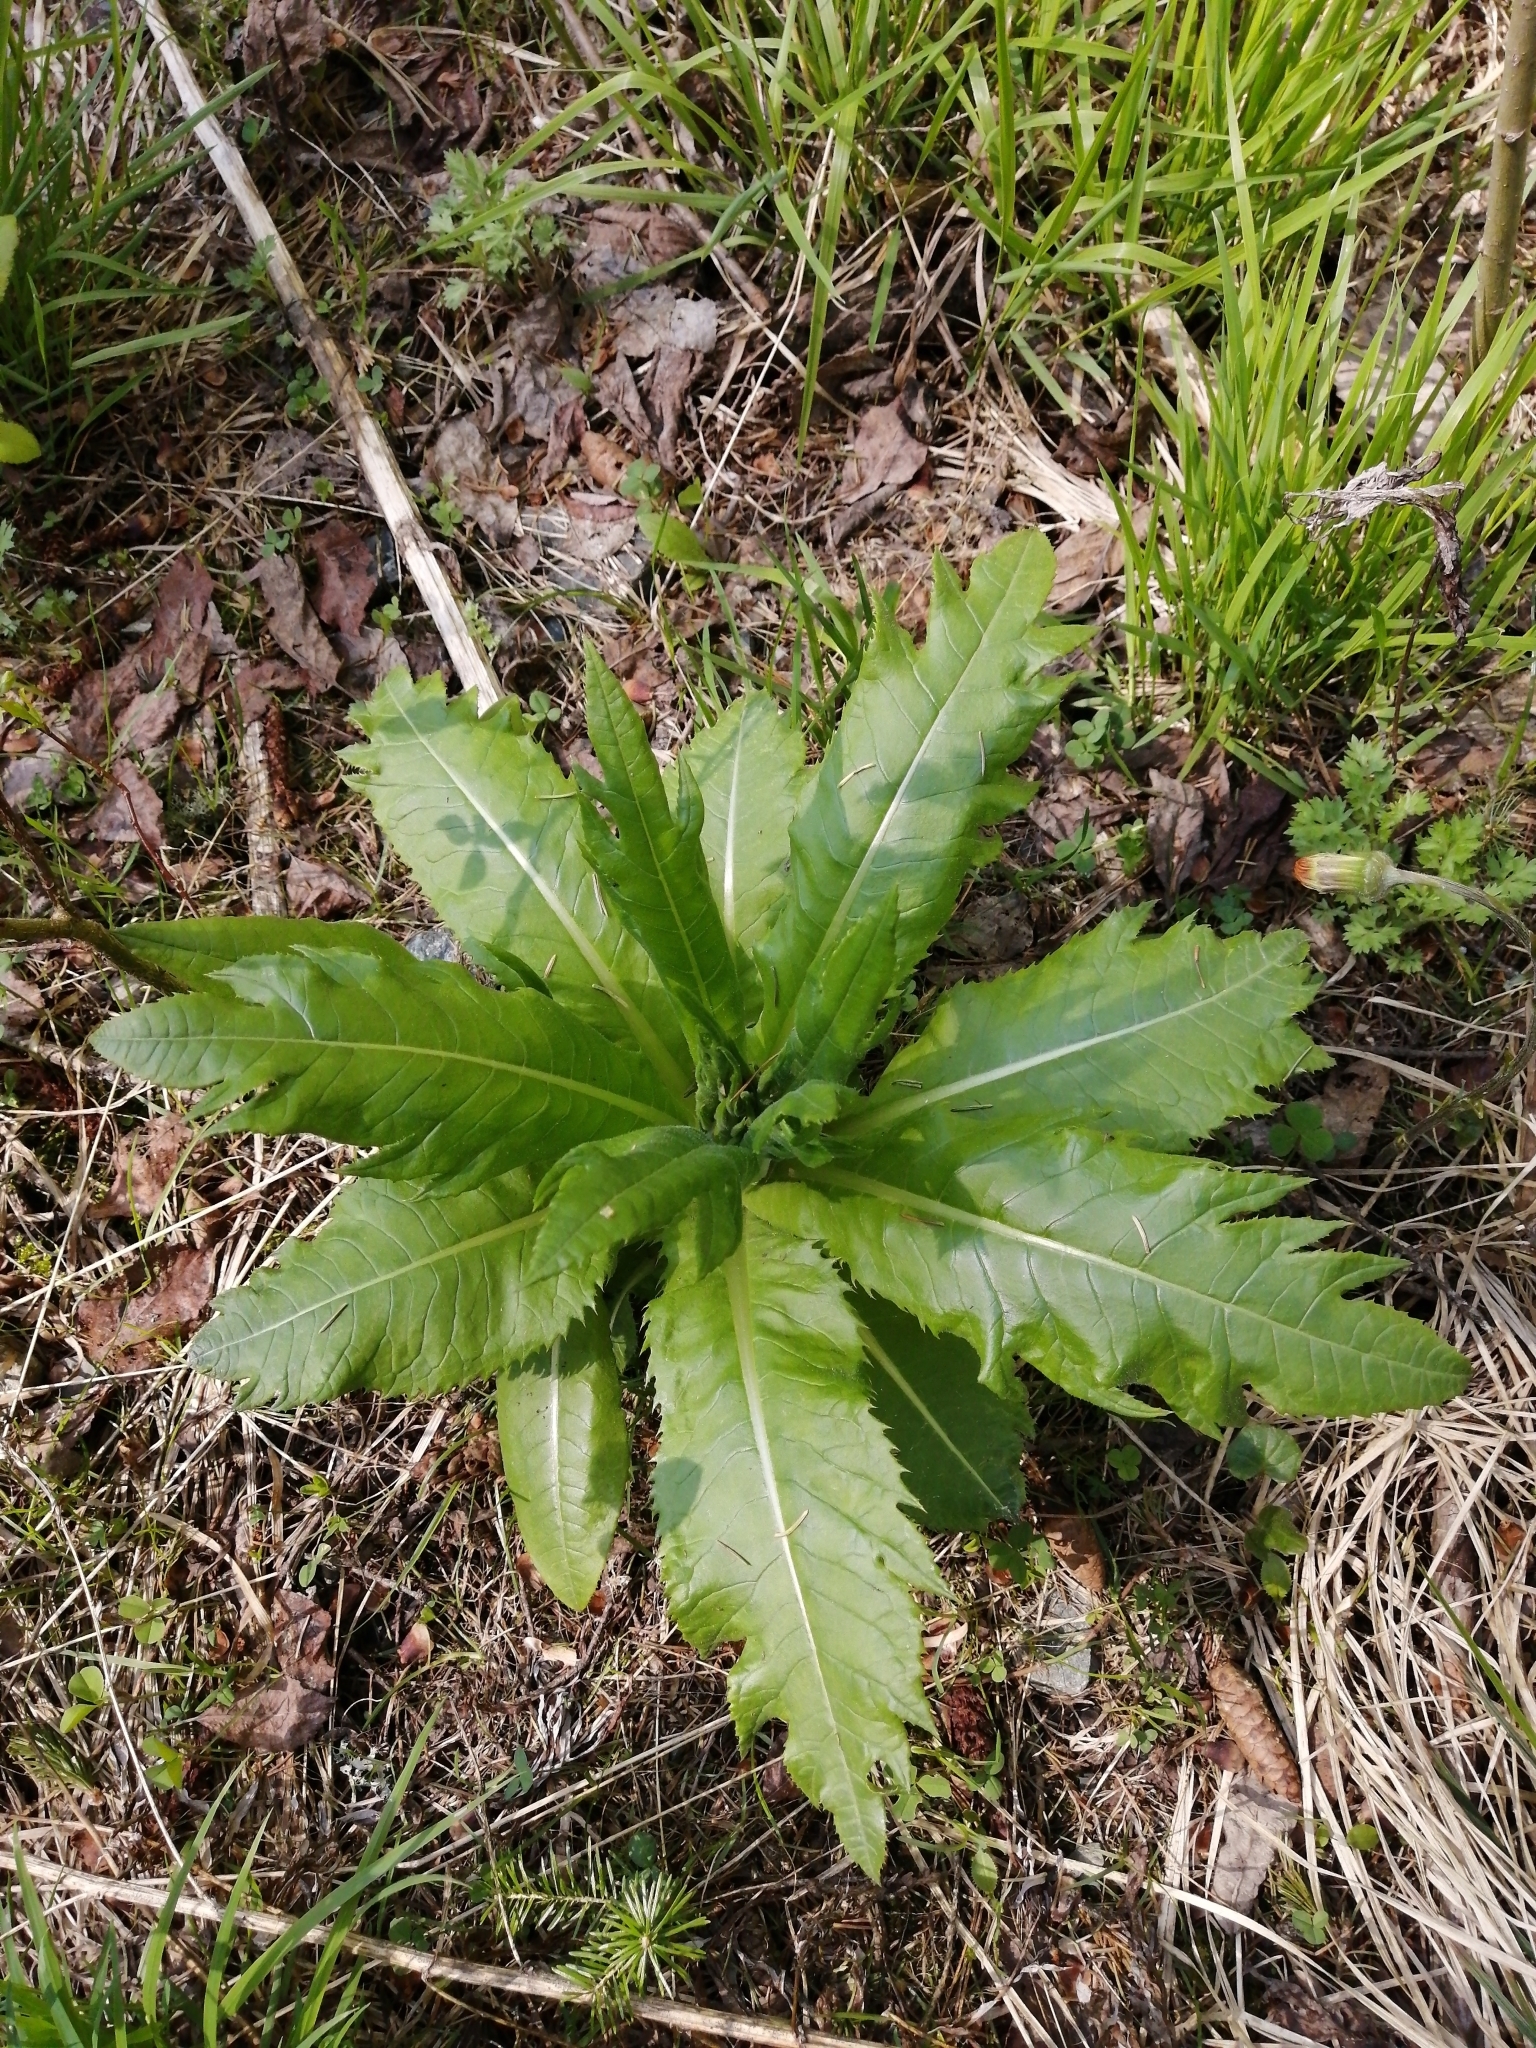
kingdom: Plantae
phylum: Tracheophyta
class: Magnoliopsida
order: Asterales
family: Asteraceae
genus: Cirsium
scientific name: Cirsium heterophyllum
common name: Melancholy thistle
